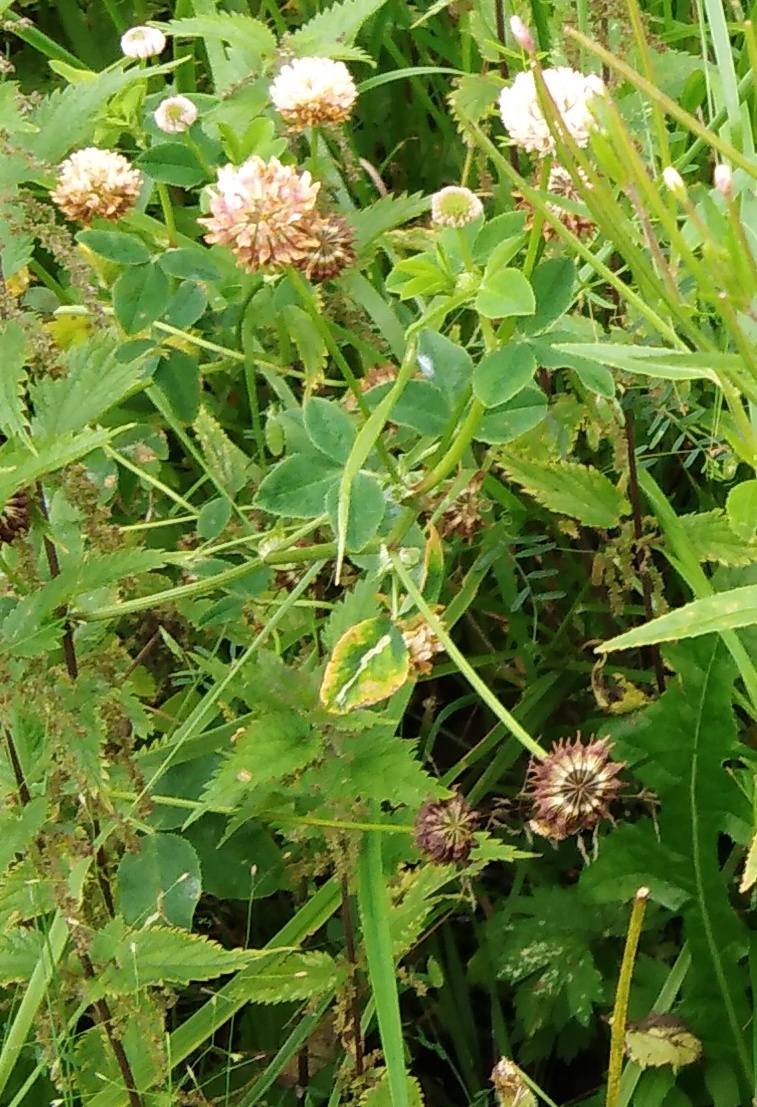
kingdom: Plantae
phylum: Tracheophyta
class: Magnoliopsida
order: Fabales
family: Fabaceae
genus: Trifolium
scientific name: Trifolium hybridum
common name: Alsike clover
